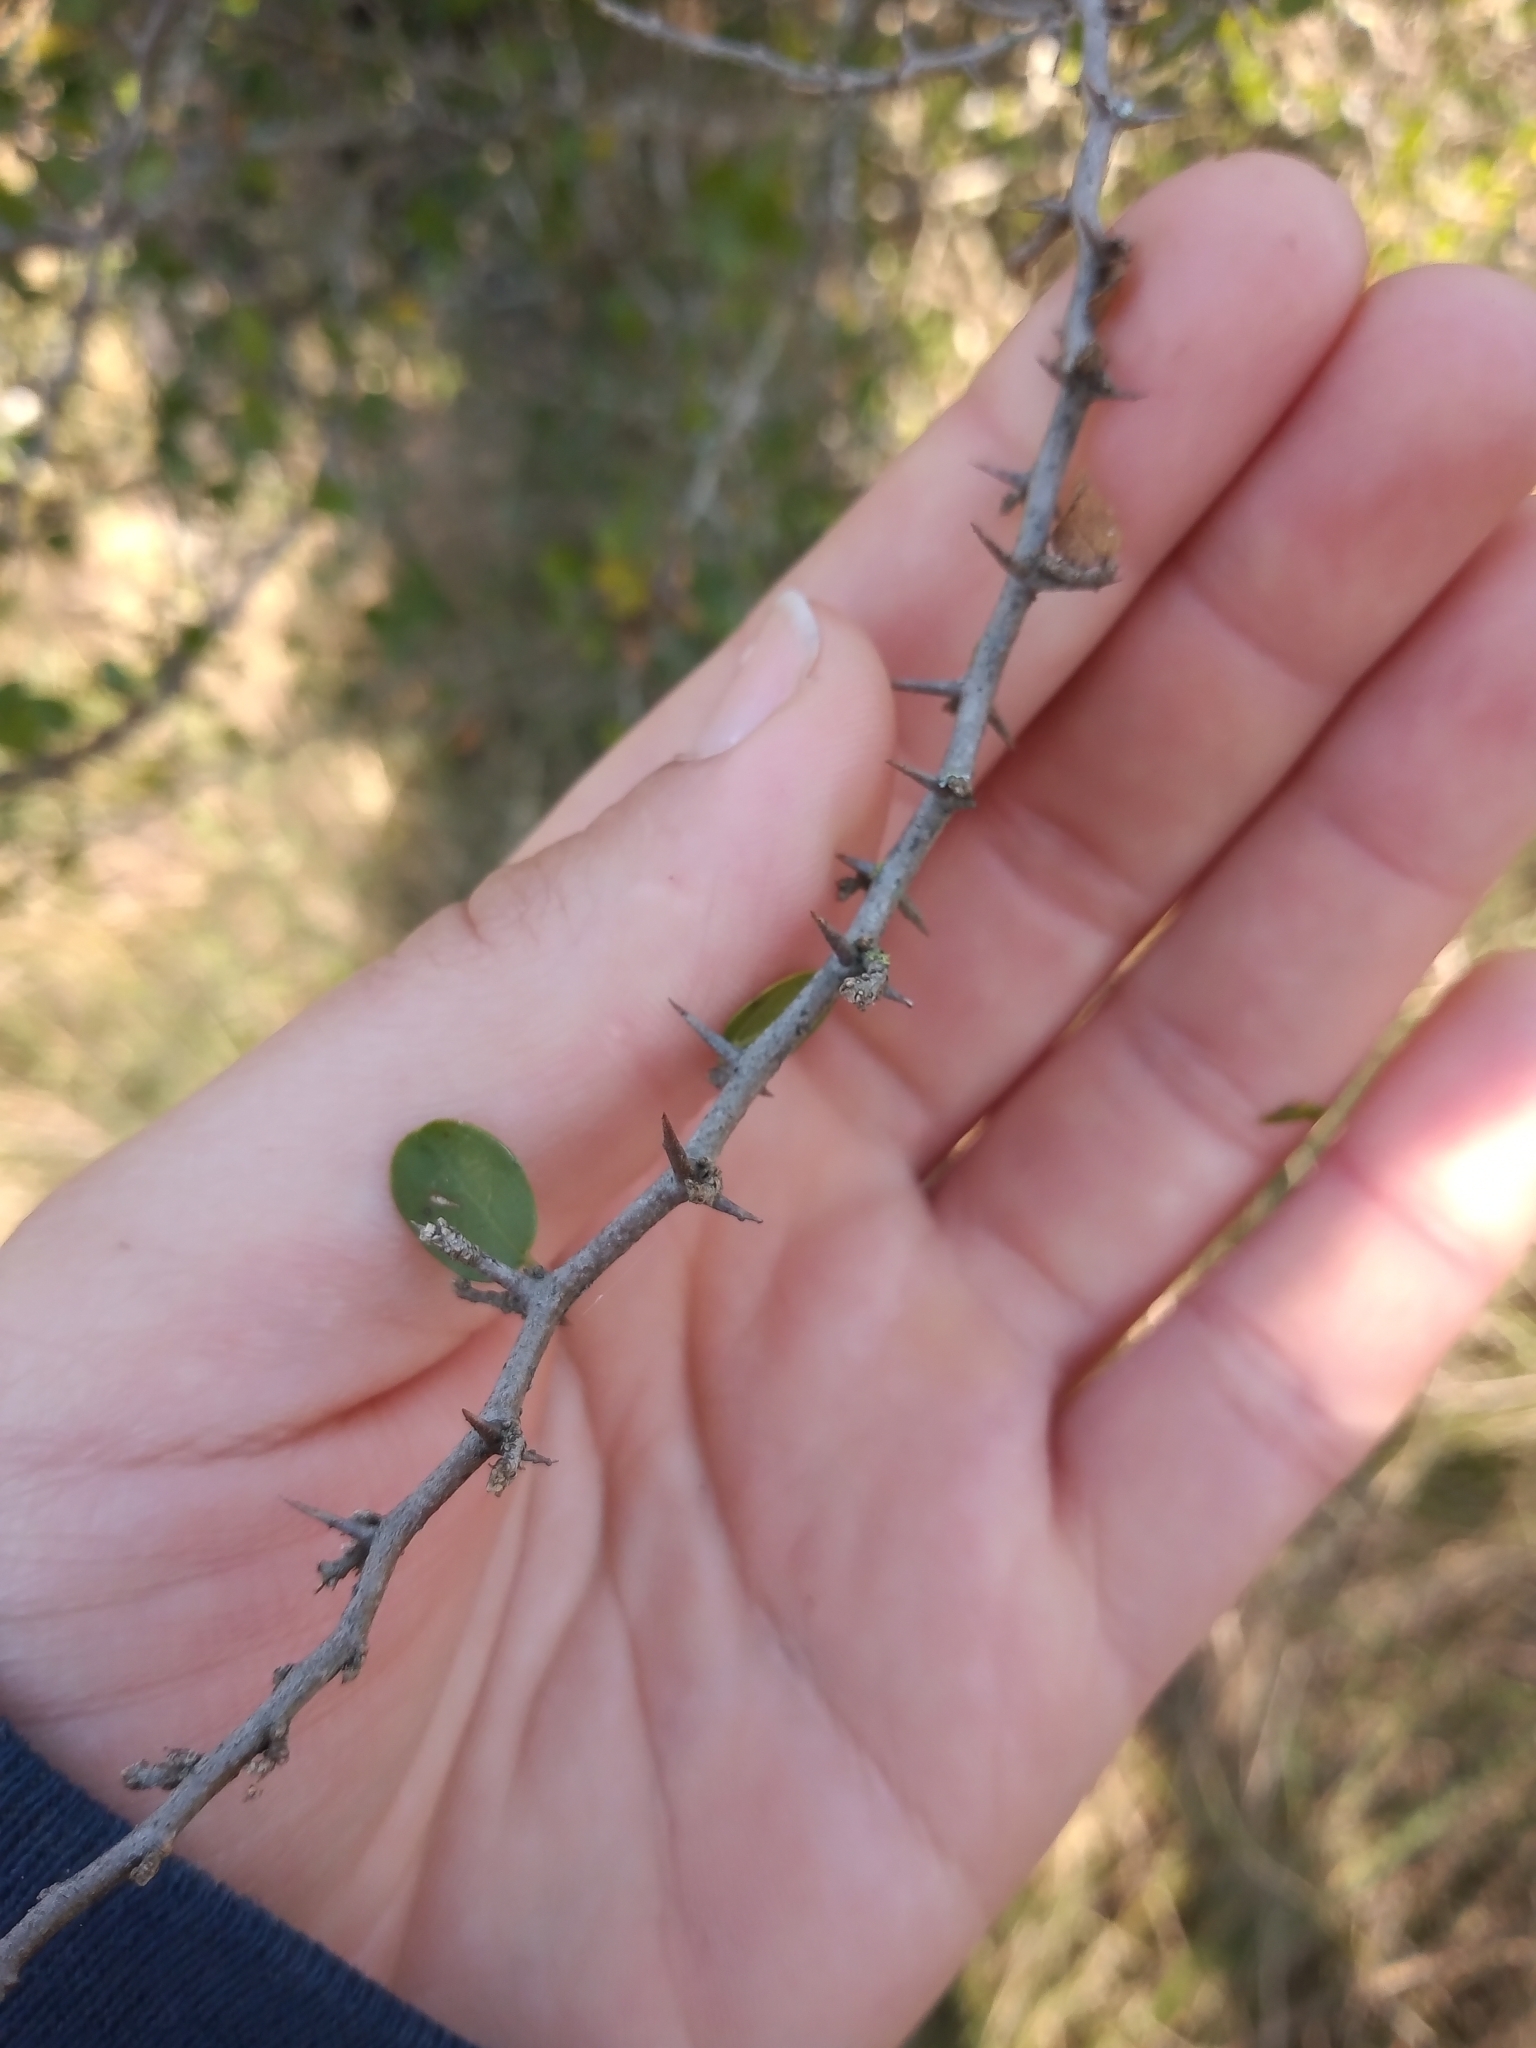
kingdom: Plantae
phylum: Tracheophyta
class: Magnoliopsida
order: Rosales
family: Cannabaceae
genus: Celtis
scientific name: Celtis pallida
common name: Desert hackberry
